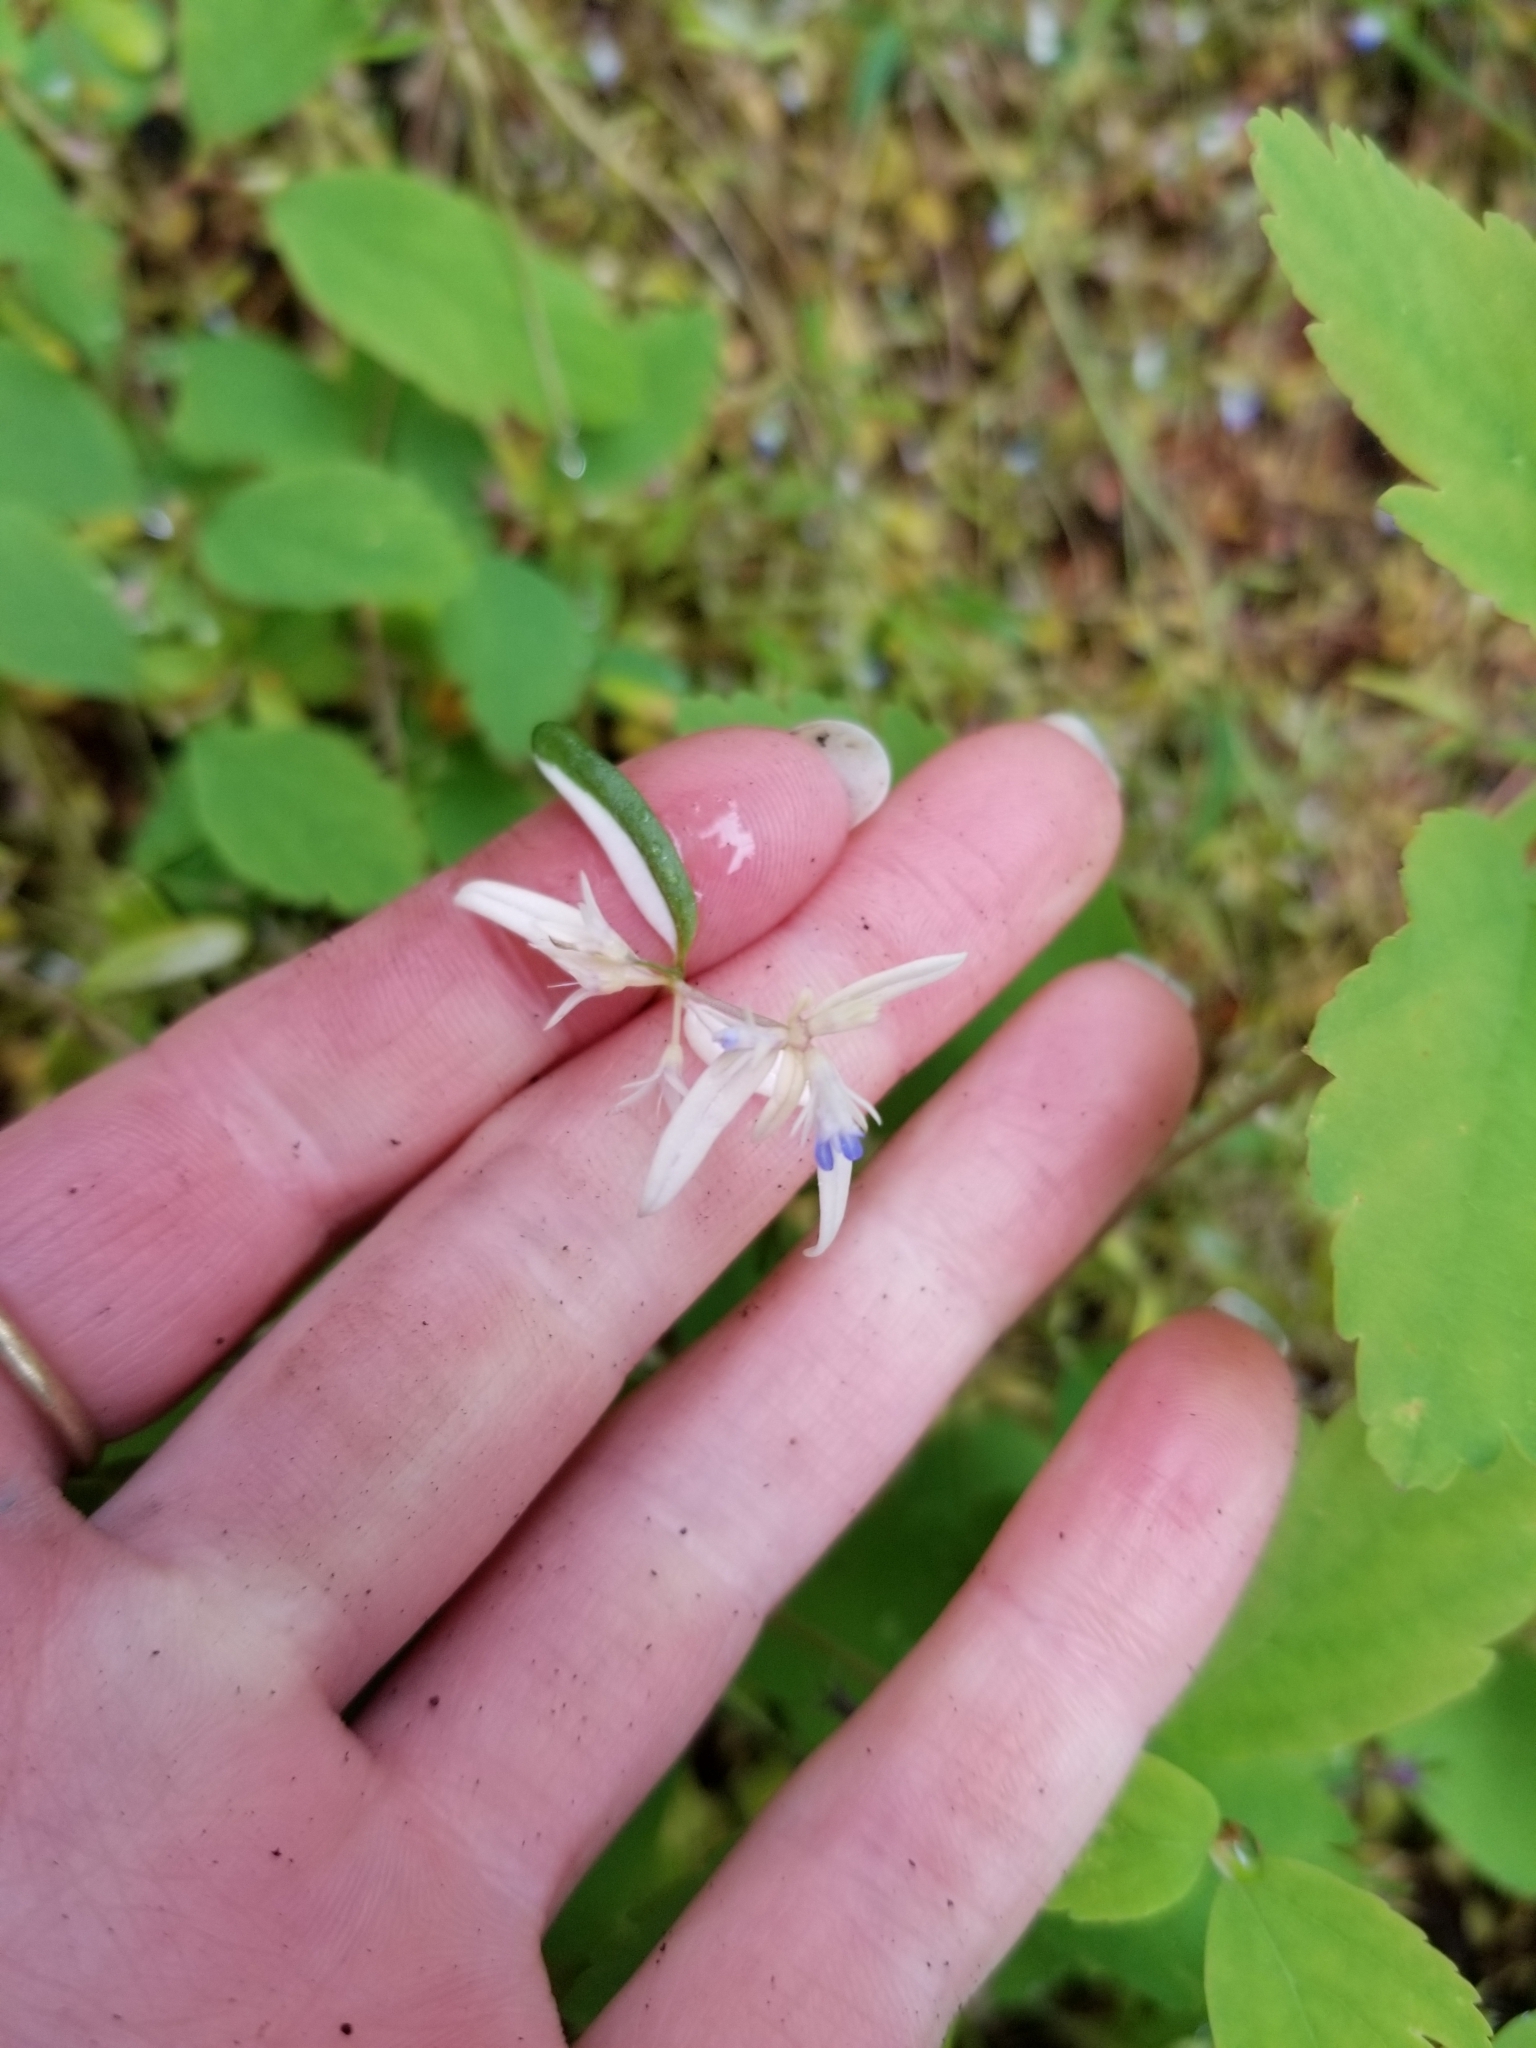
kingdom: Plantae
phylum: Tracheophyta
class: Magnoliopsida
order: Lamiales
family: Plantaginaceae
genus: Collinsia
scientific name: Collinsia parviflora
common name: Blue-lips
